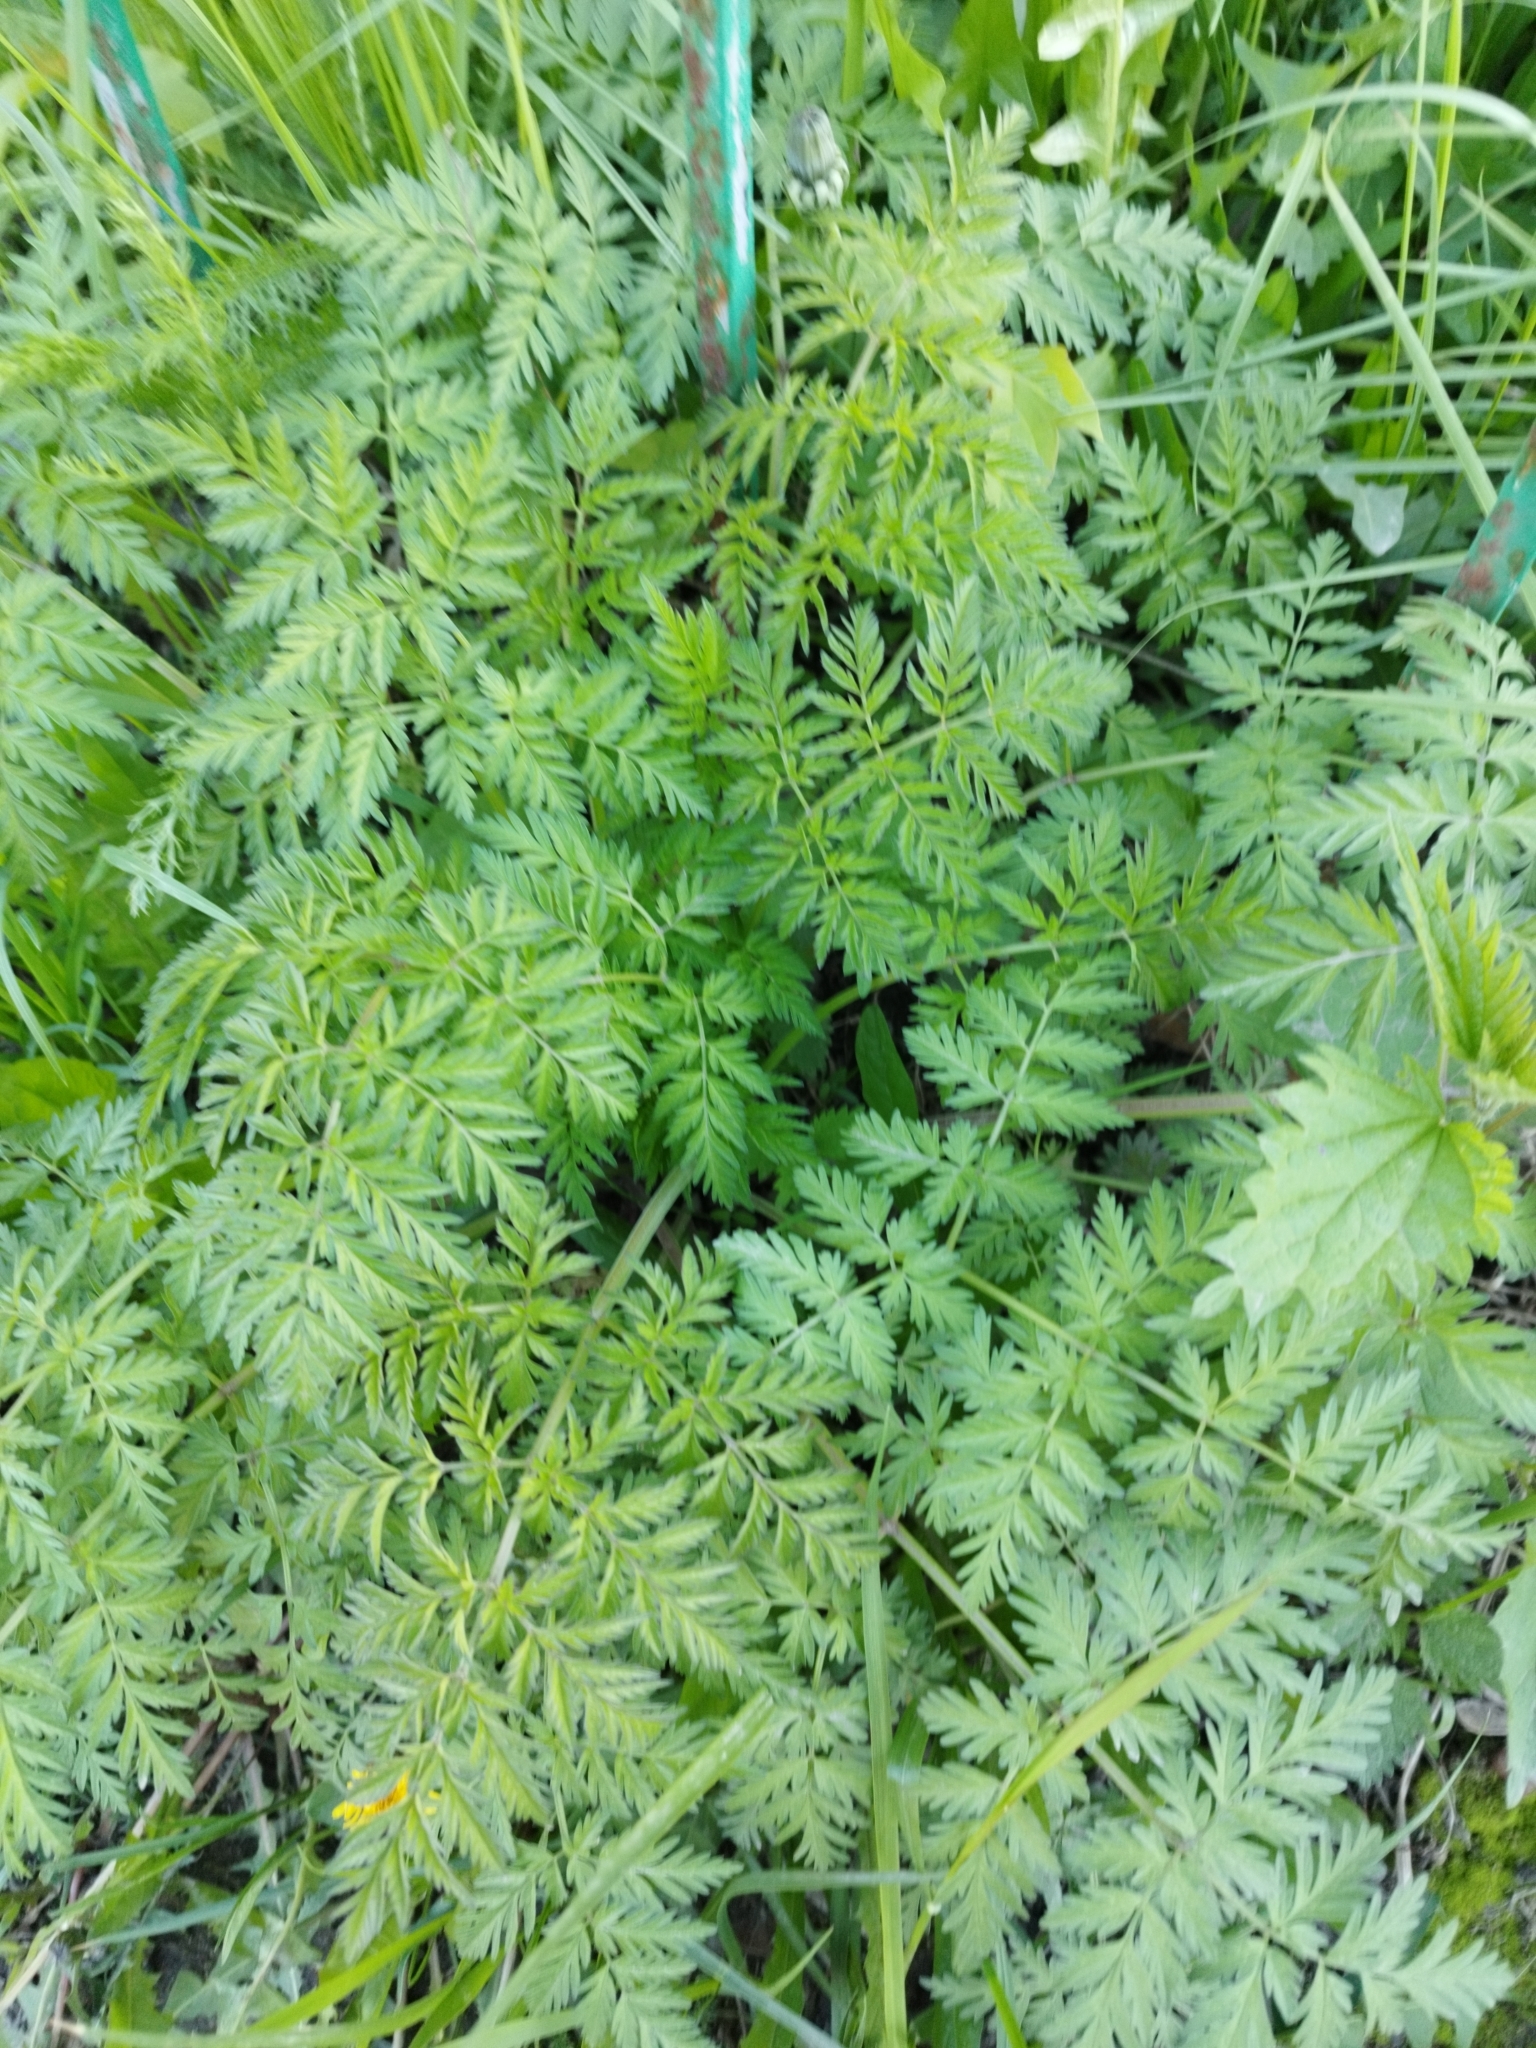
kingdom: Plantae
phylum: Tracheophyta
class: Magnoliopsida
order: Apiales
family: Apiaceae
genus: Anthriscus
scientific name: Anthriscus sylvestris
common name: Cow parsley
